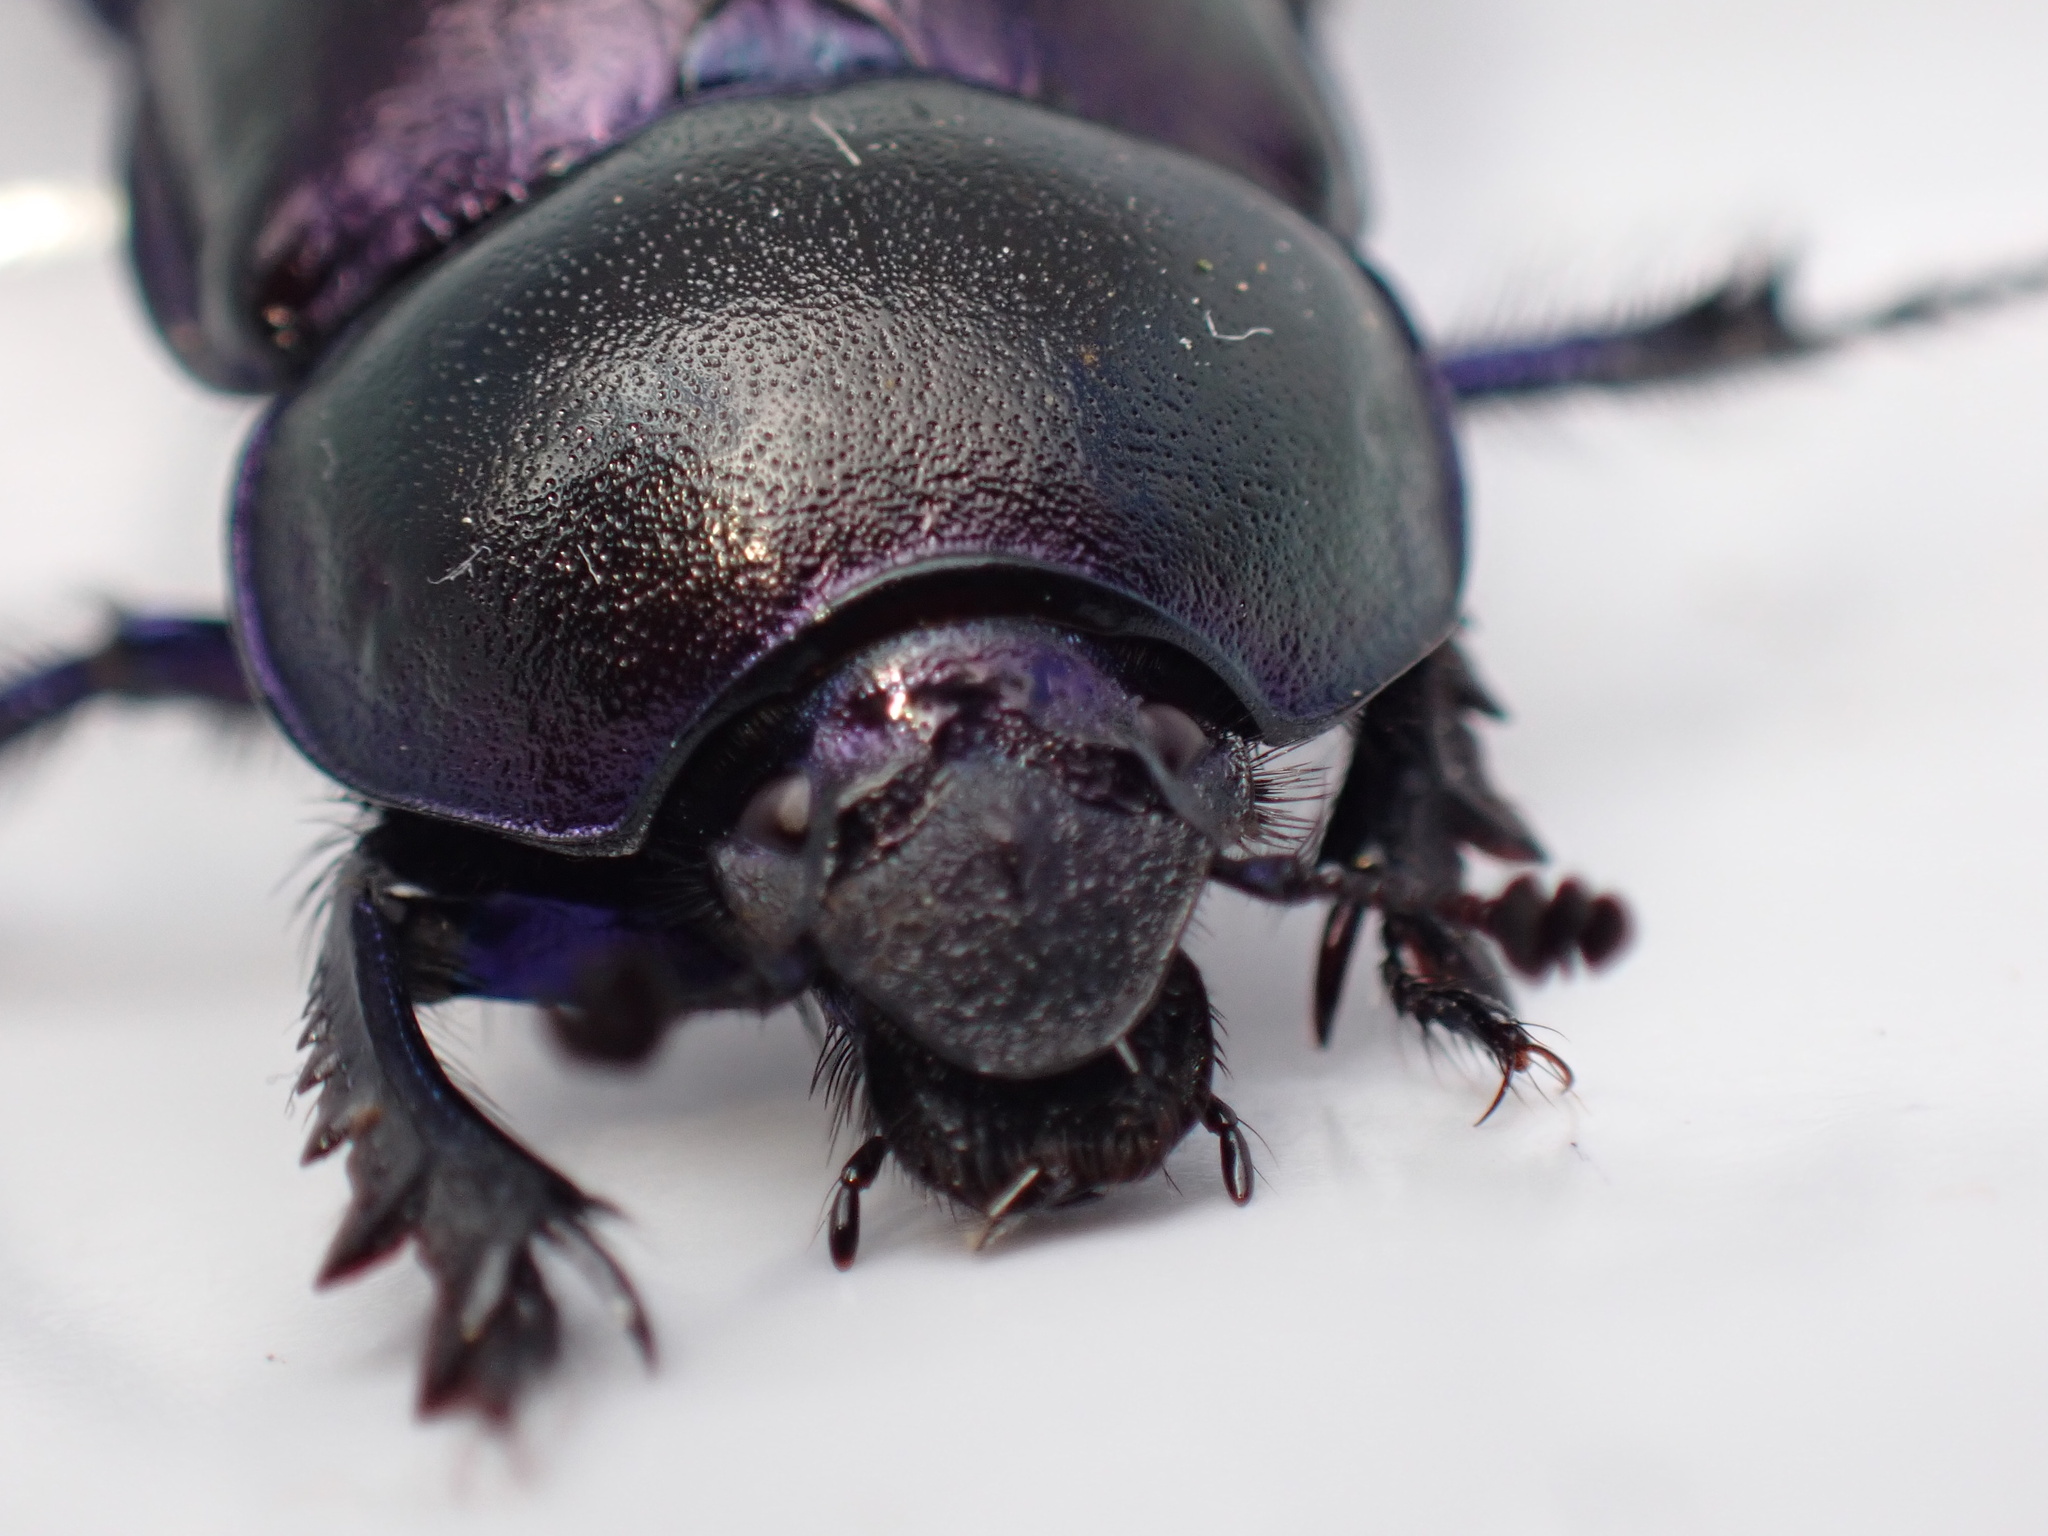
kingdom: Animalia
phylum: Arthropoda
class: Insecta
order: Coleoptera
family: Geotrupidae
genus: Trypocopris
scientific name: Trypocopris vernalis
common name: Spring dumbledor
